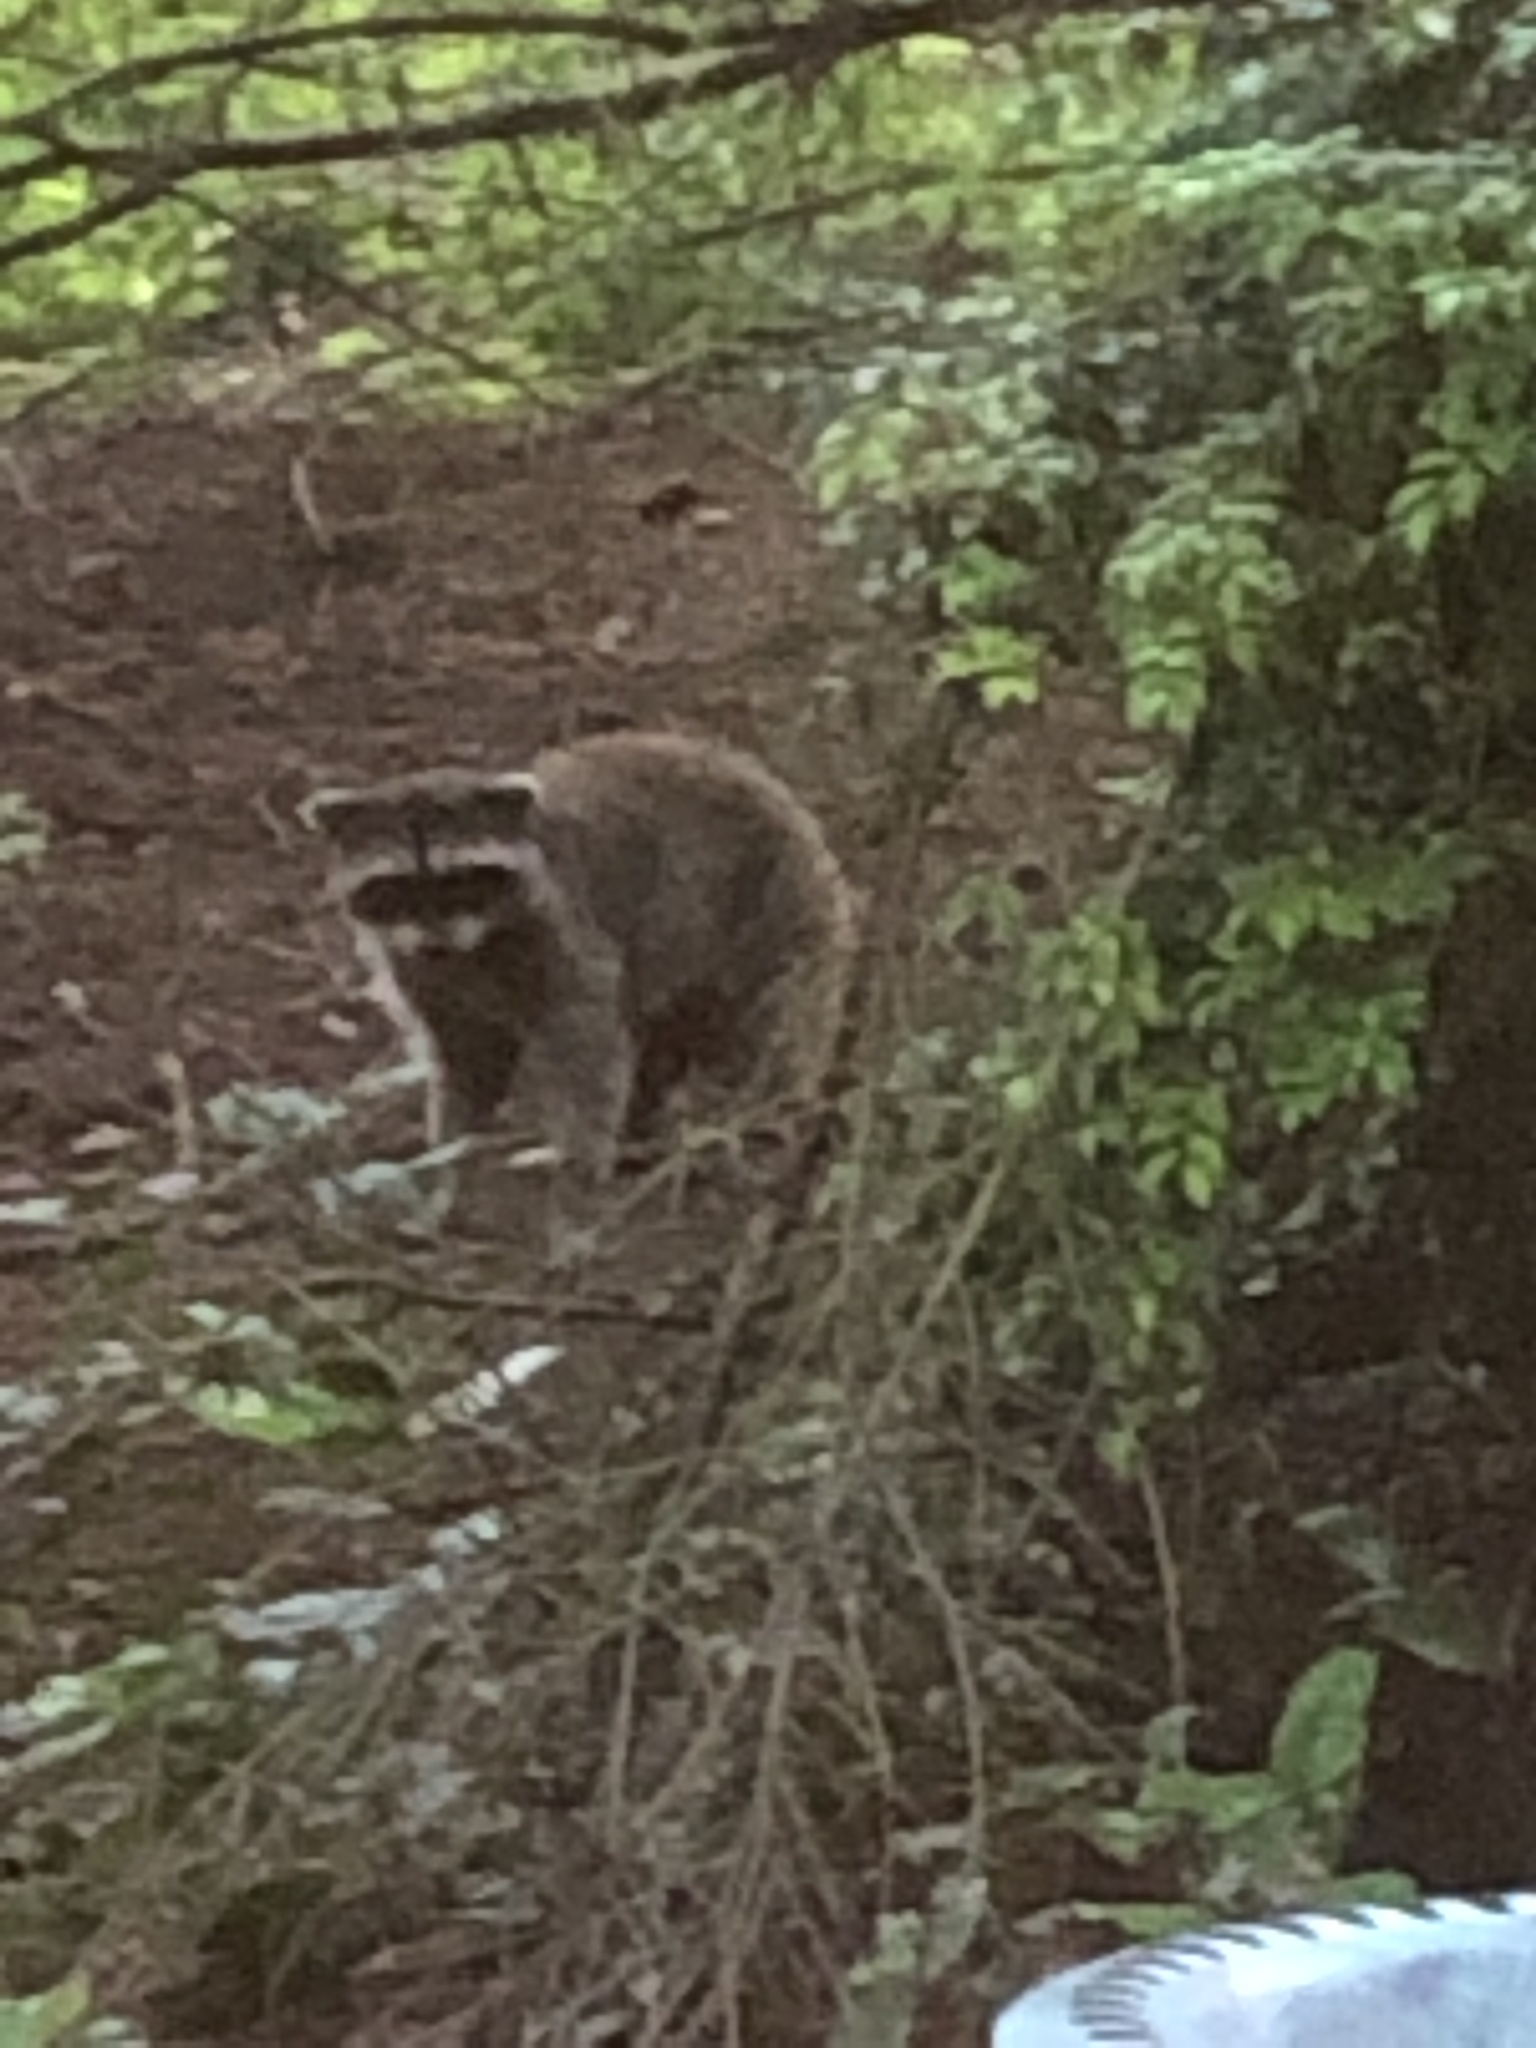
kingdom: Animalia
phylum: Chordata
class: Mammalia
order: Carnivora
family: Procyonidae
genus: Procyon
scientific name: Procyon lotor
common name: Raccoon
